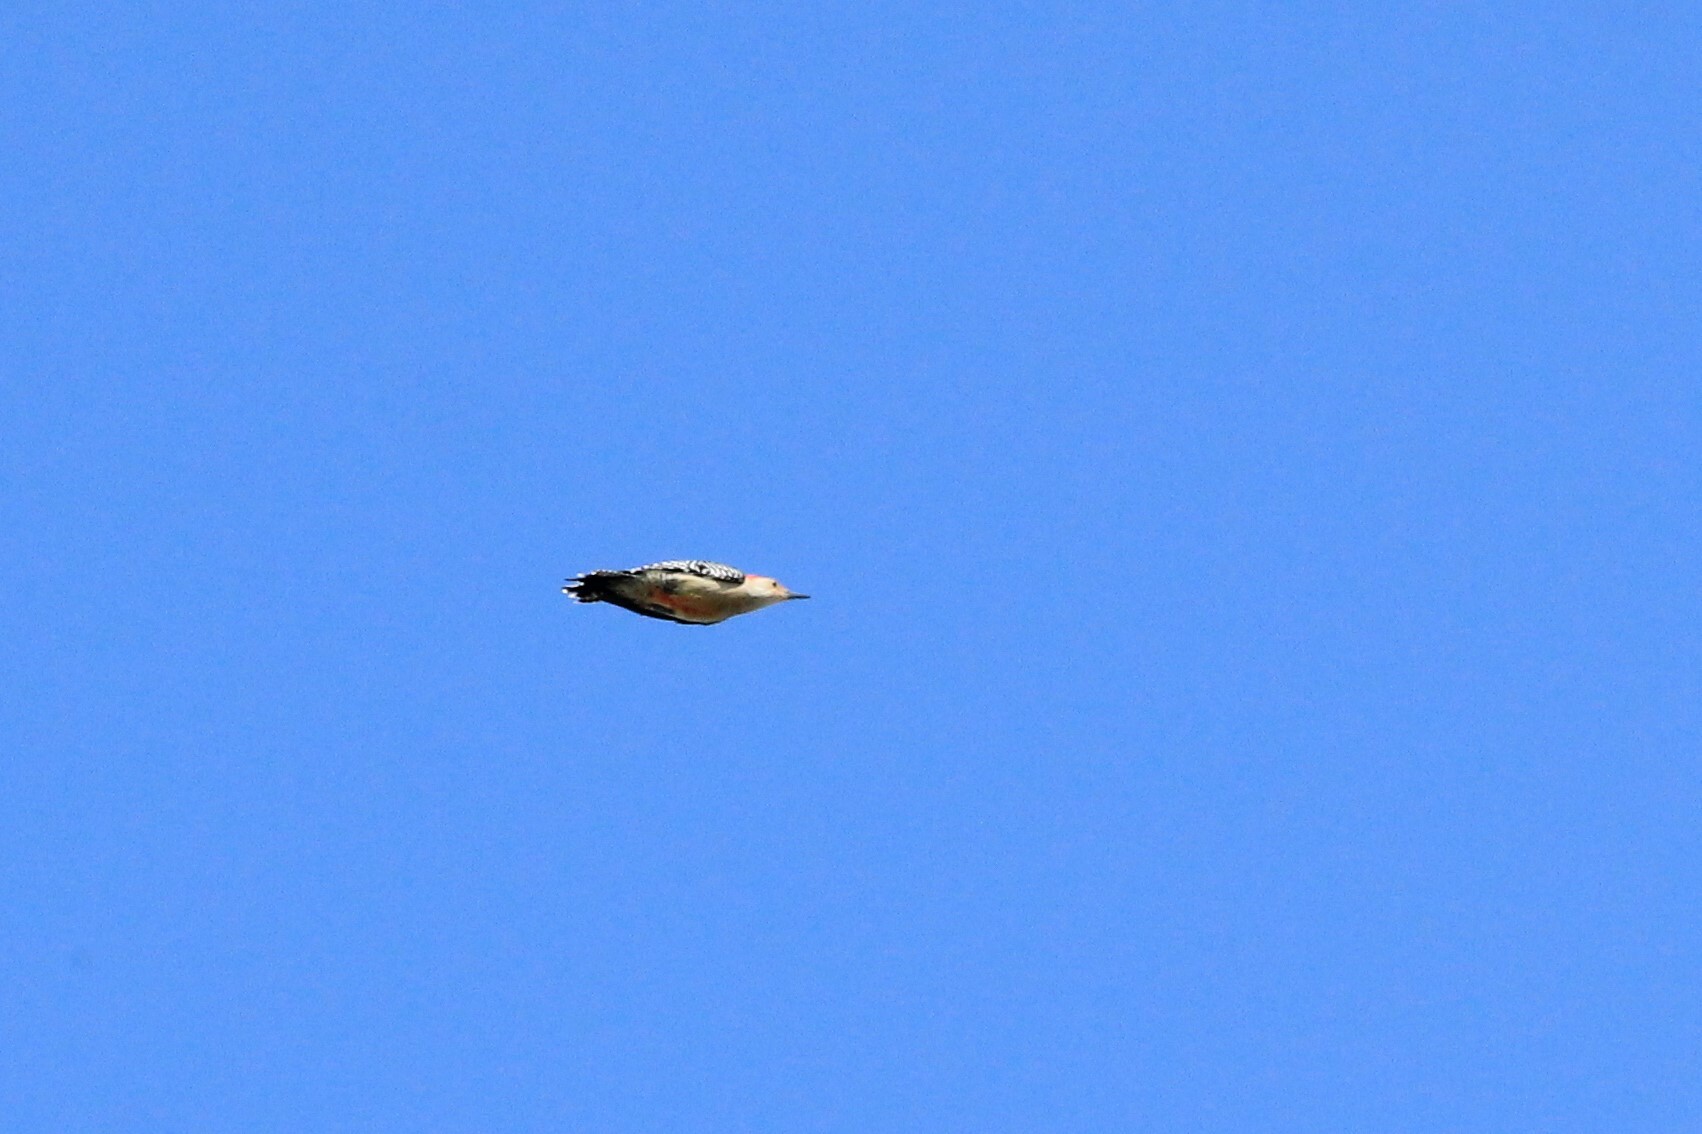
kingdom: Animalia
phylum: Chordata
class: Aves
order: Piciformes
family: Picidae
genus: Melanerpes
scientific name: Melanerpes carolinus
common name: Red-bellied woodpecker
